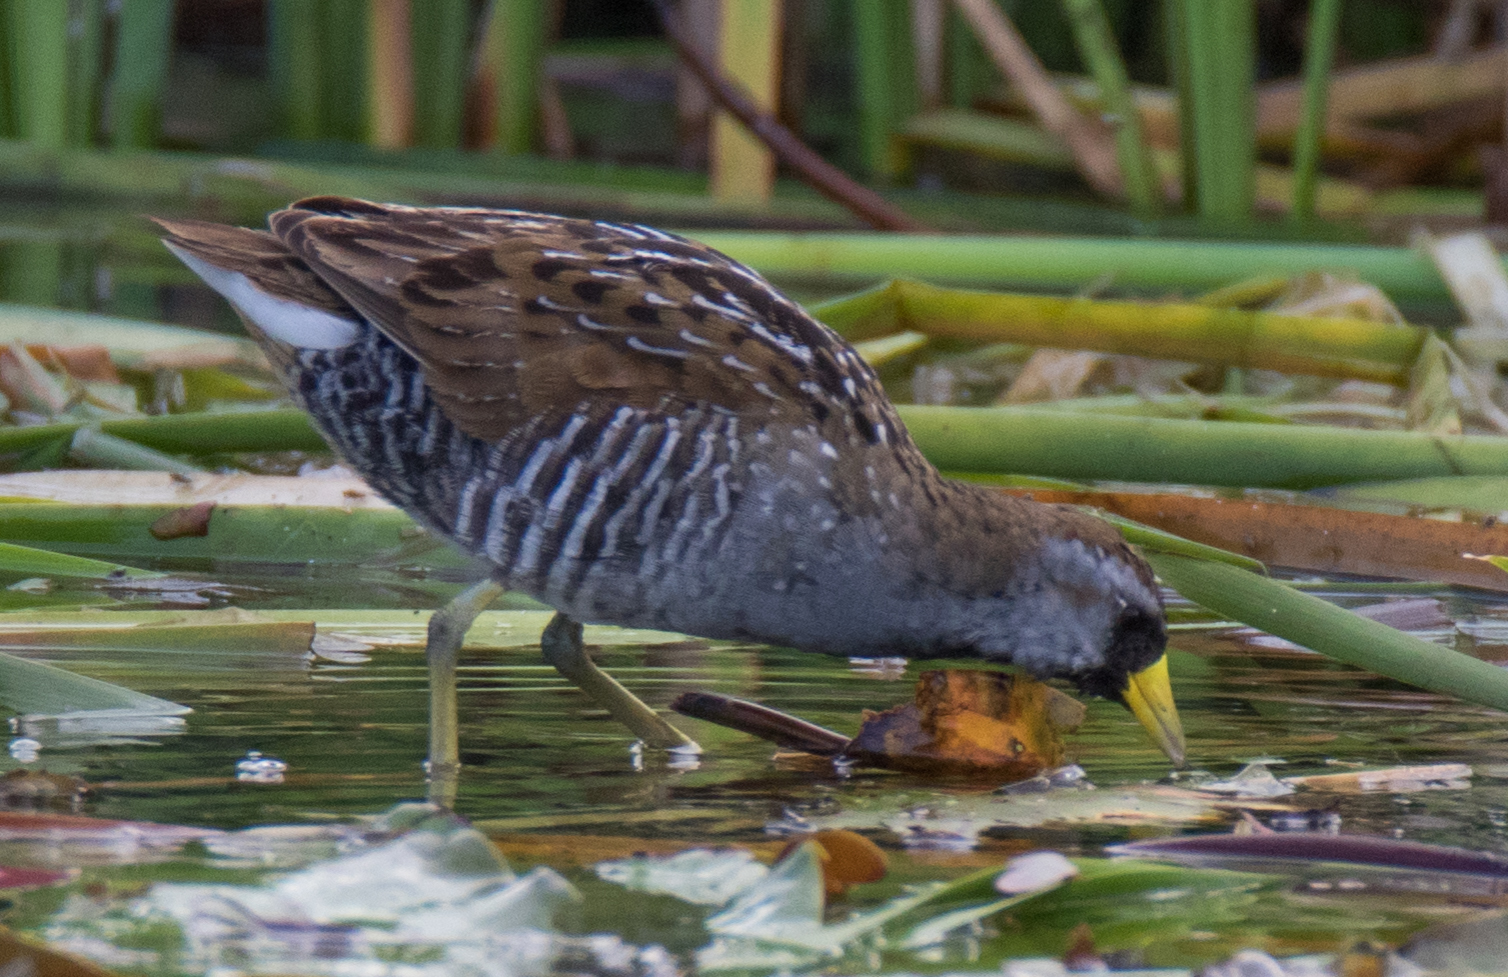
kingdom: Animalia
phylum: Chordata
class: Aves
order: Gruiformes
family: Rallidae
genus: Porzana
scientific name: Porzana carolina
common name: Sora
